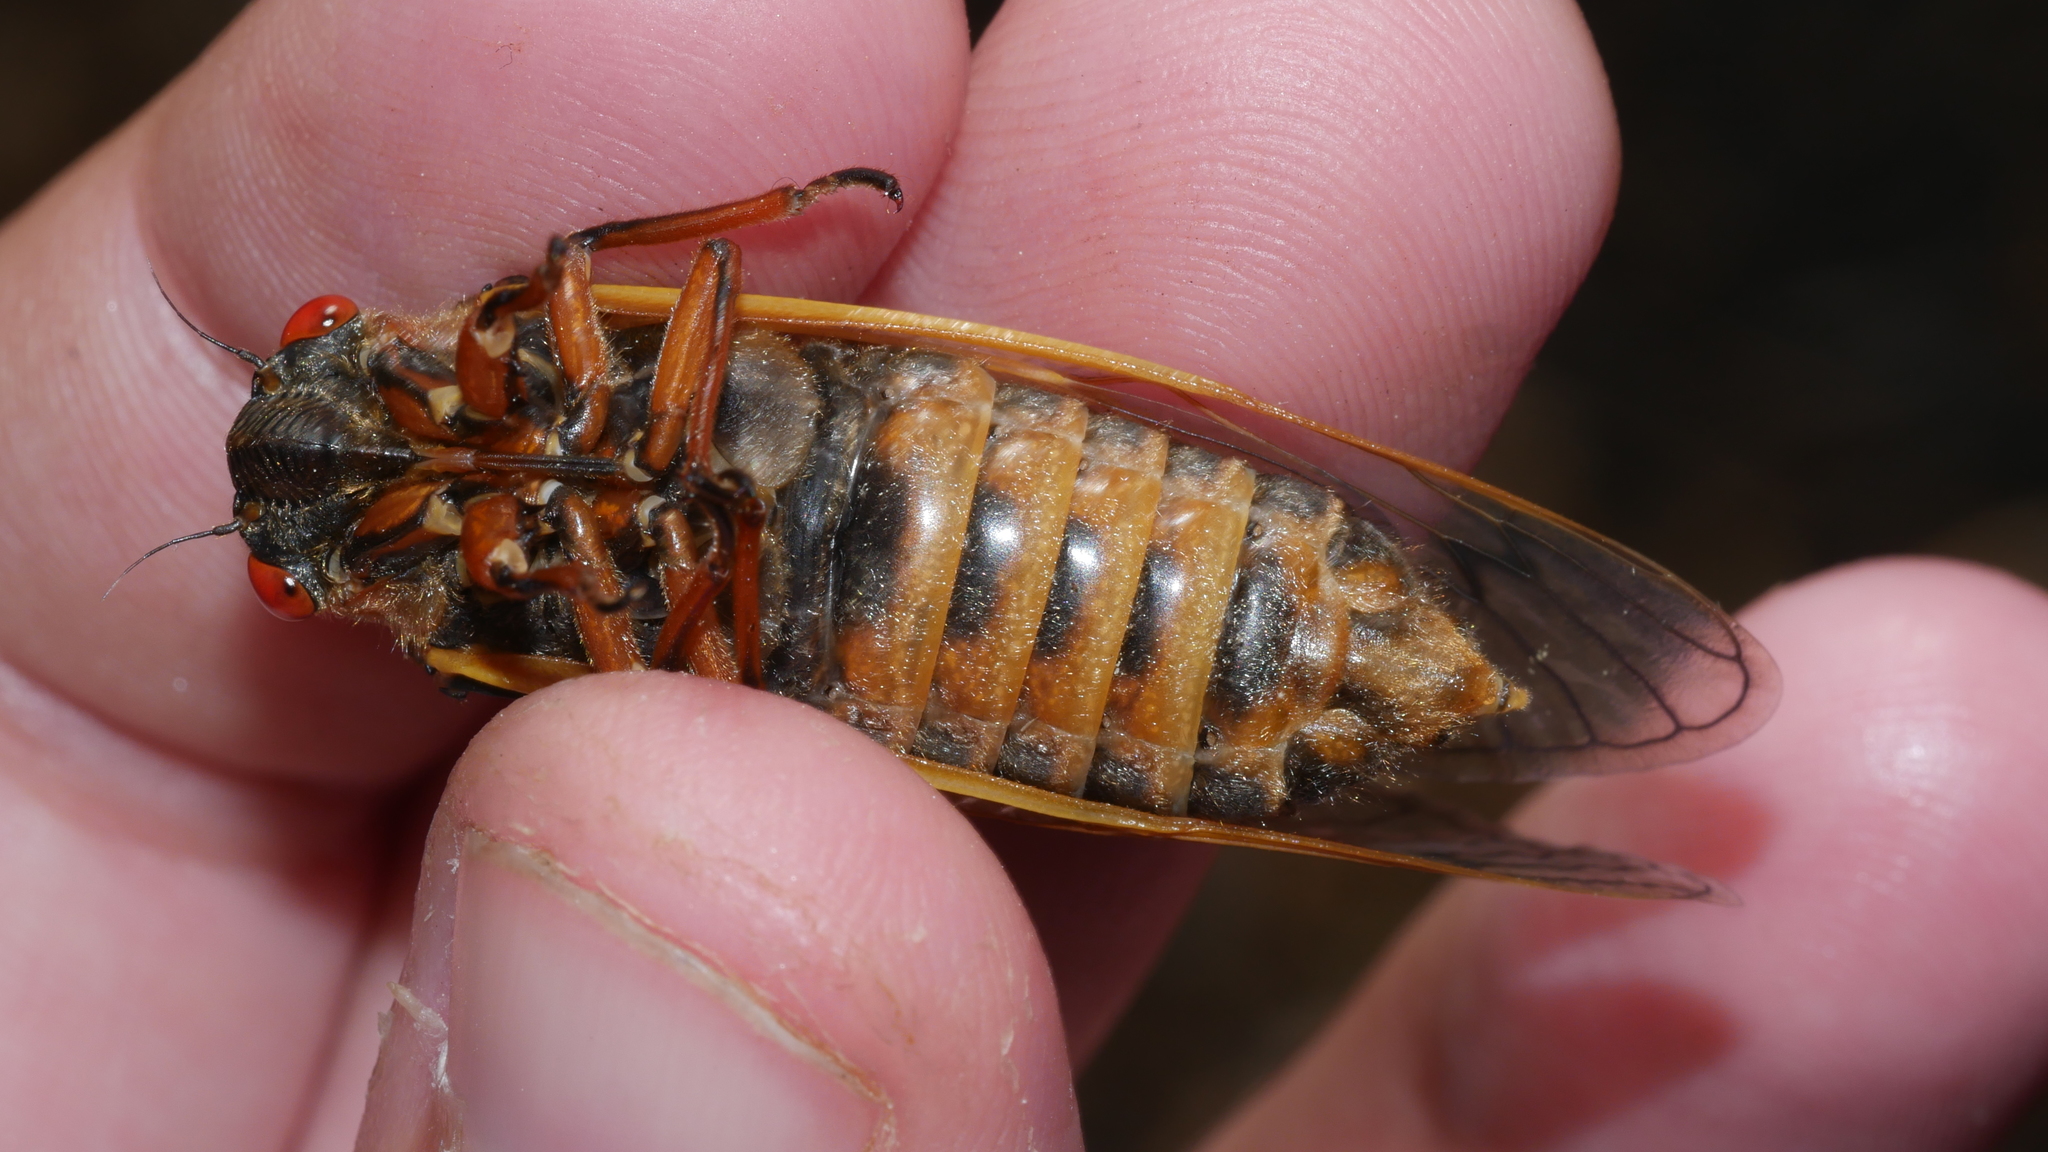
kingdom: Animalia
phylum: Arthropoda
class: Insecta
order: Hemiptera
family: Cicadidae
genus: Magicicada
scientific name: Magicicada septendecim
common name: Periodical cicada
